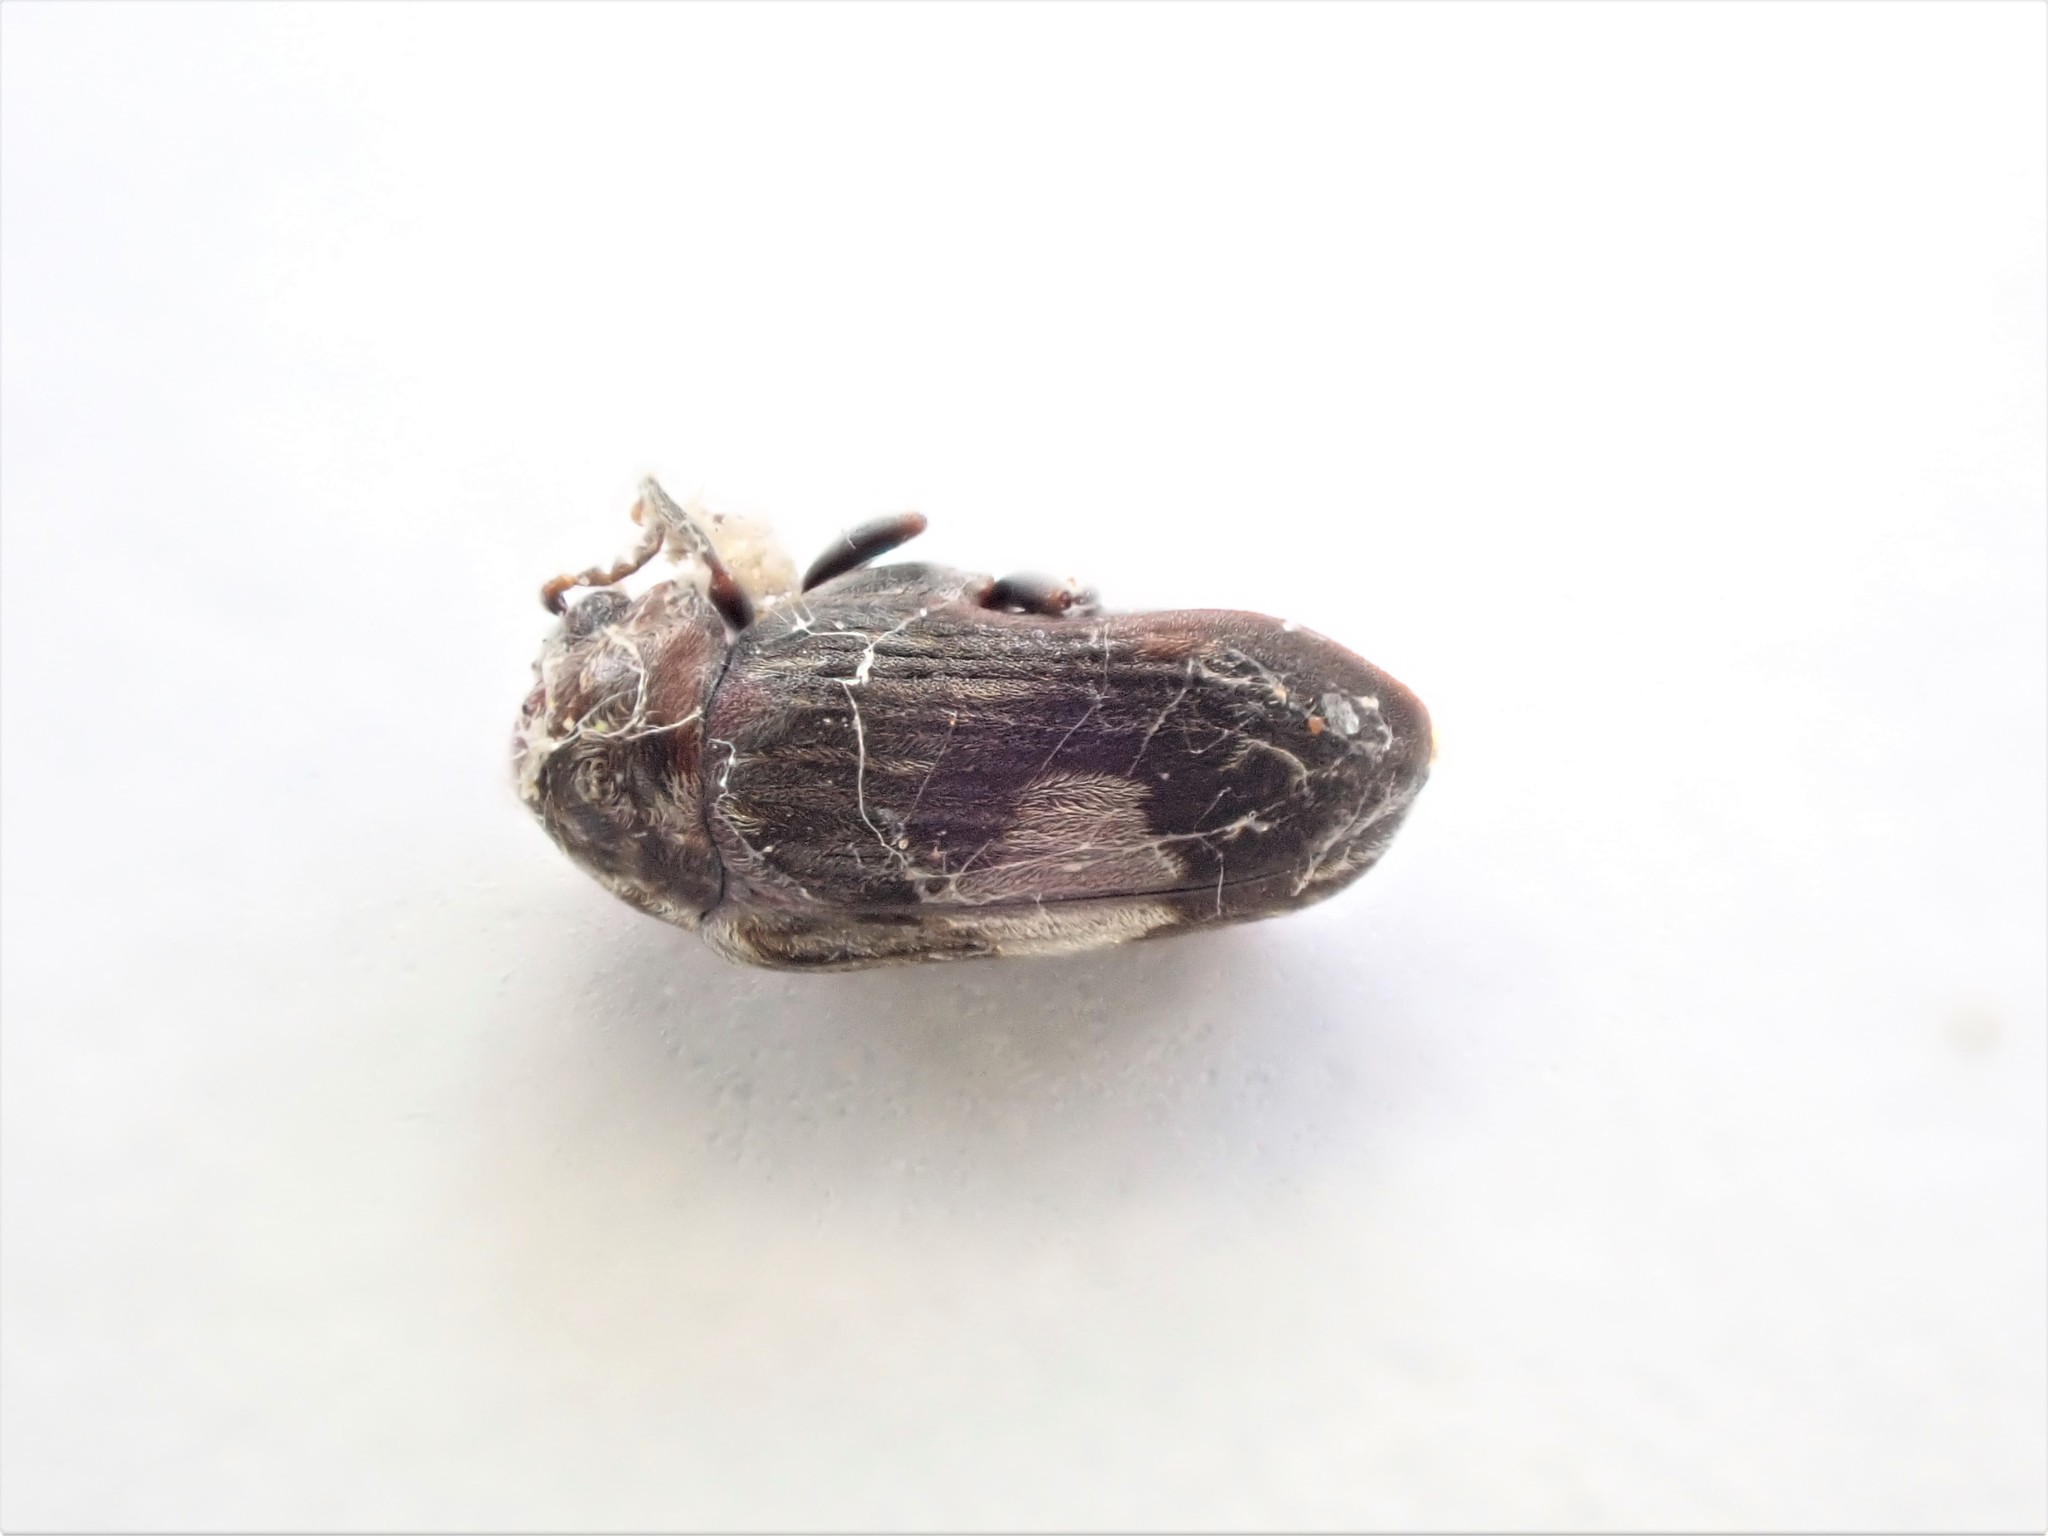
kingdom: Animalia
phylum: Arthropoda
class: Insecta
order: Coleoptera
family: Ptinidae
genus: Leanobium
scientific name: Leanobium
